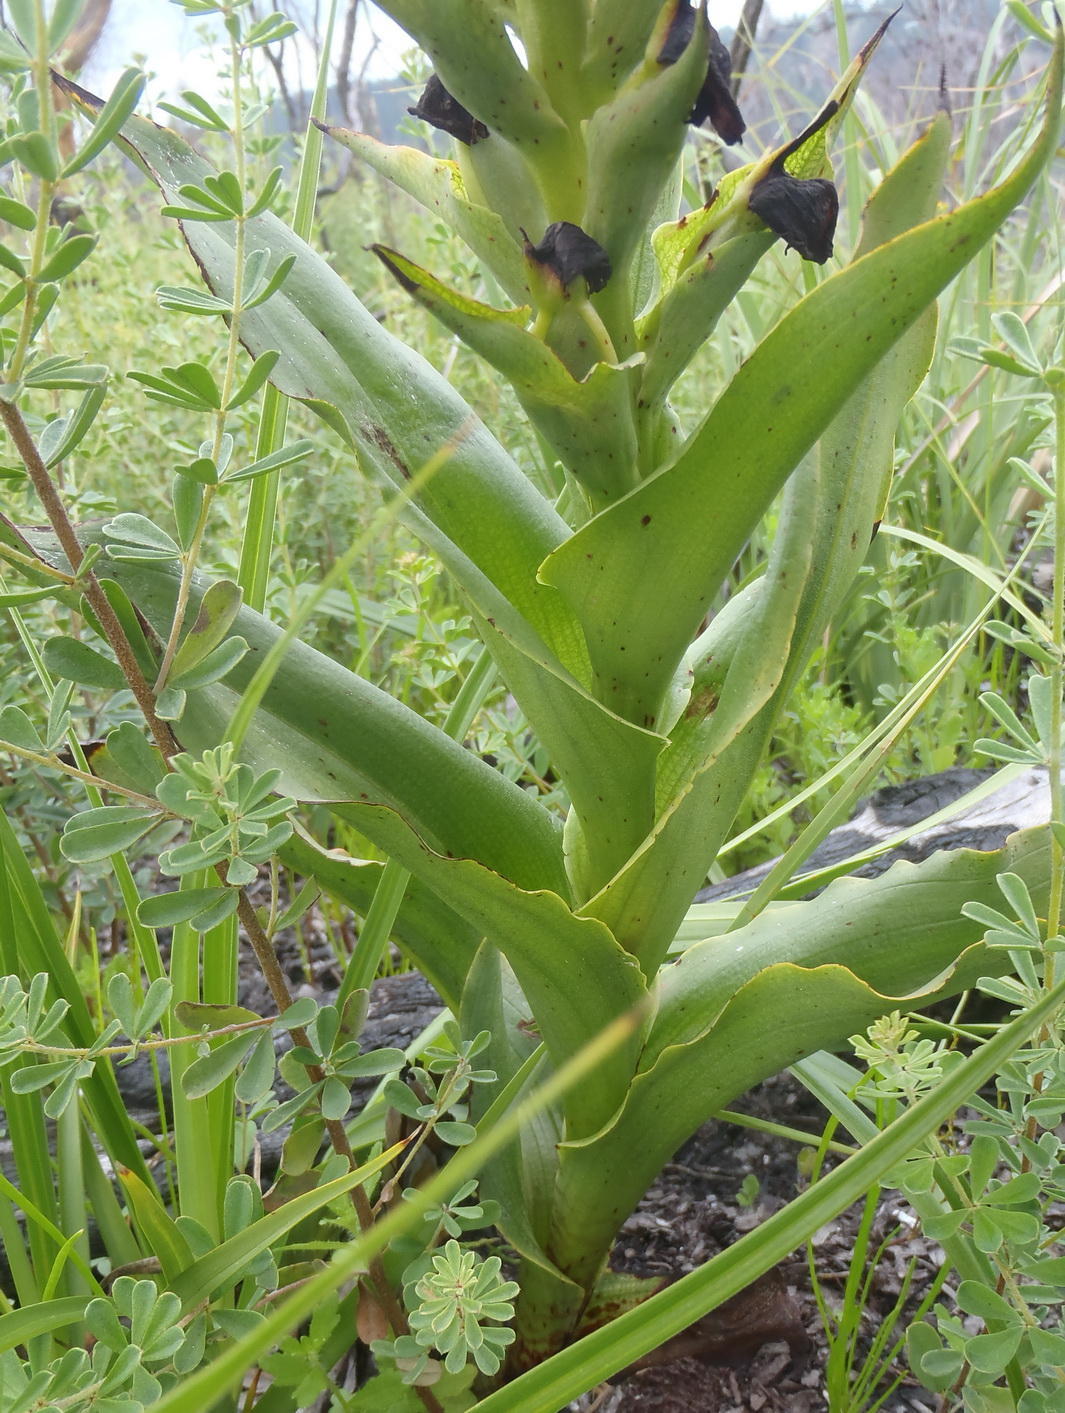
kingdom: Plantae
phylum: Tracheophyta
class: Liliopsida
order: Asparagales
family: Orchidaceae
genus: Disa
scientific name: Disa cornuta
